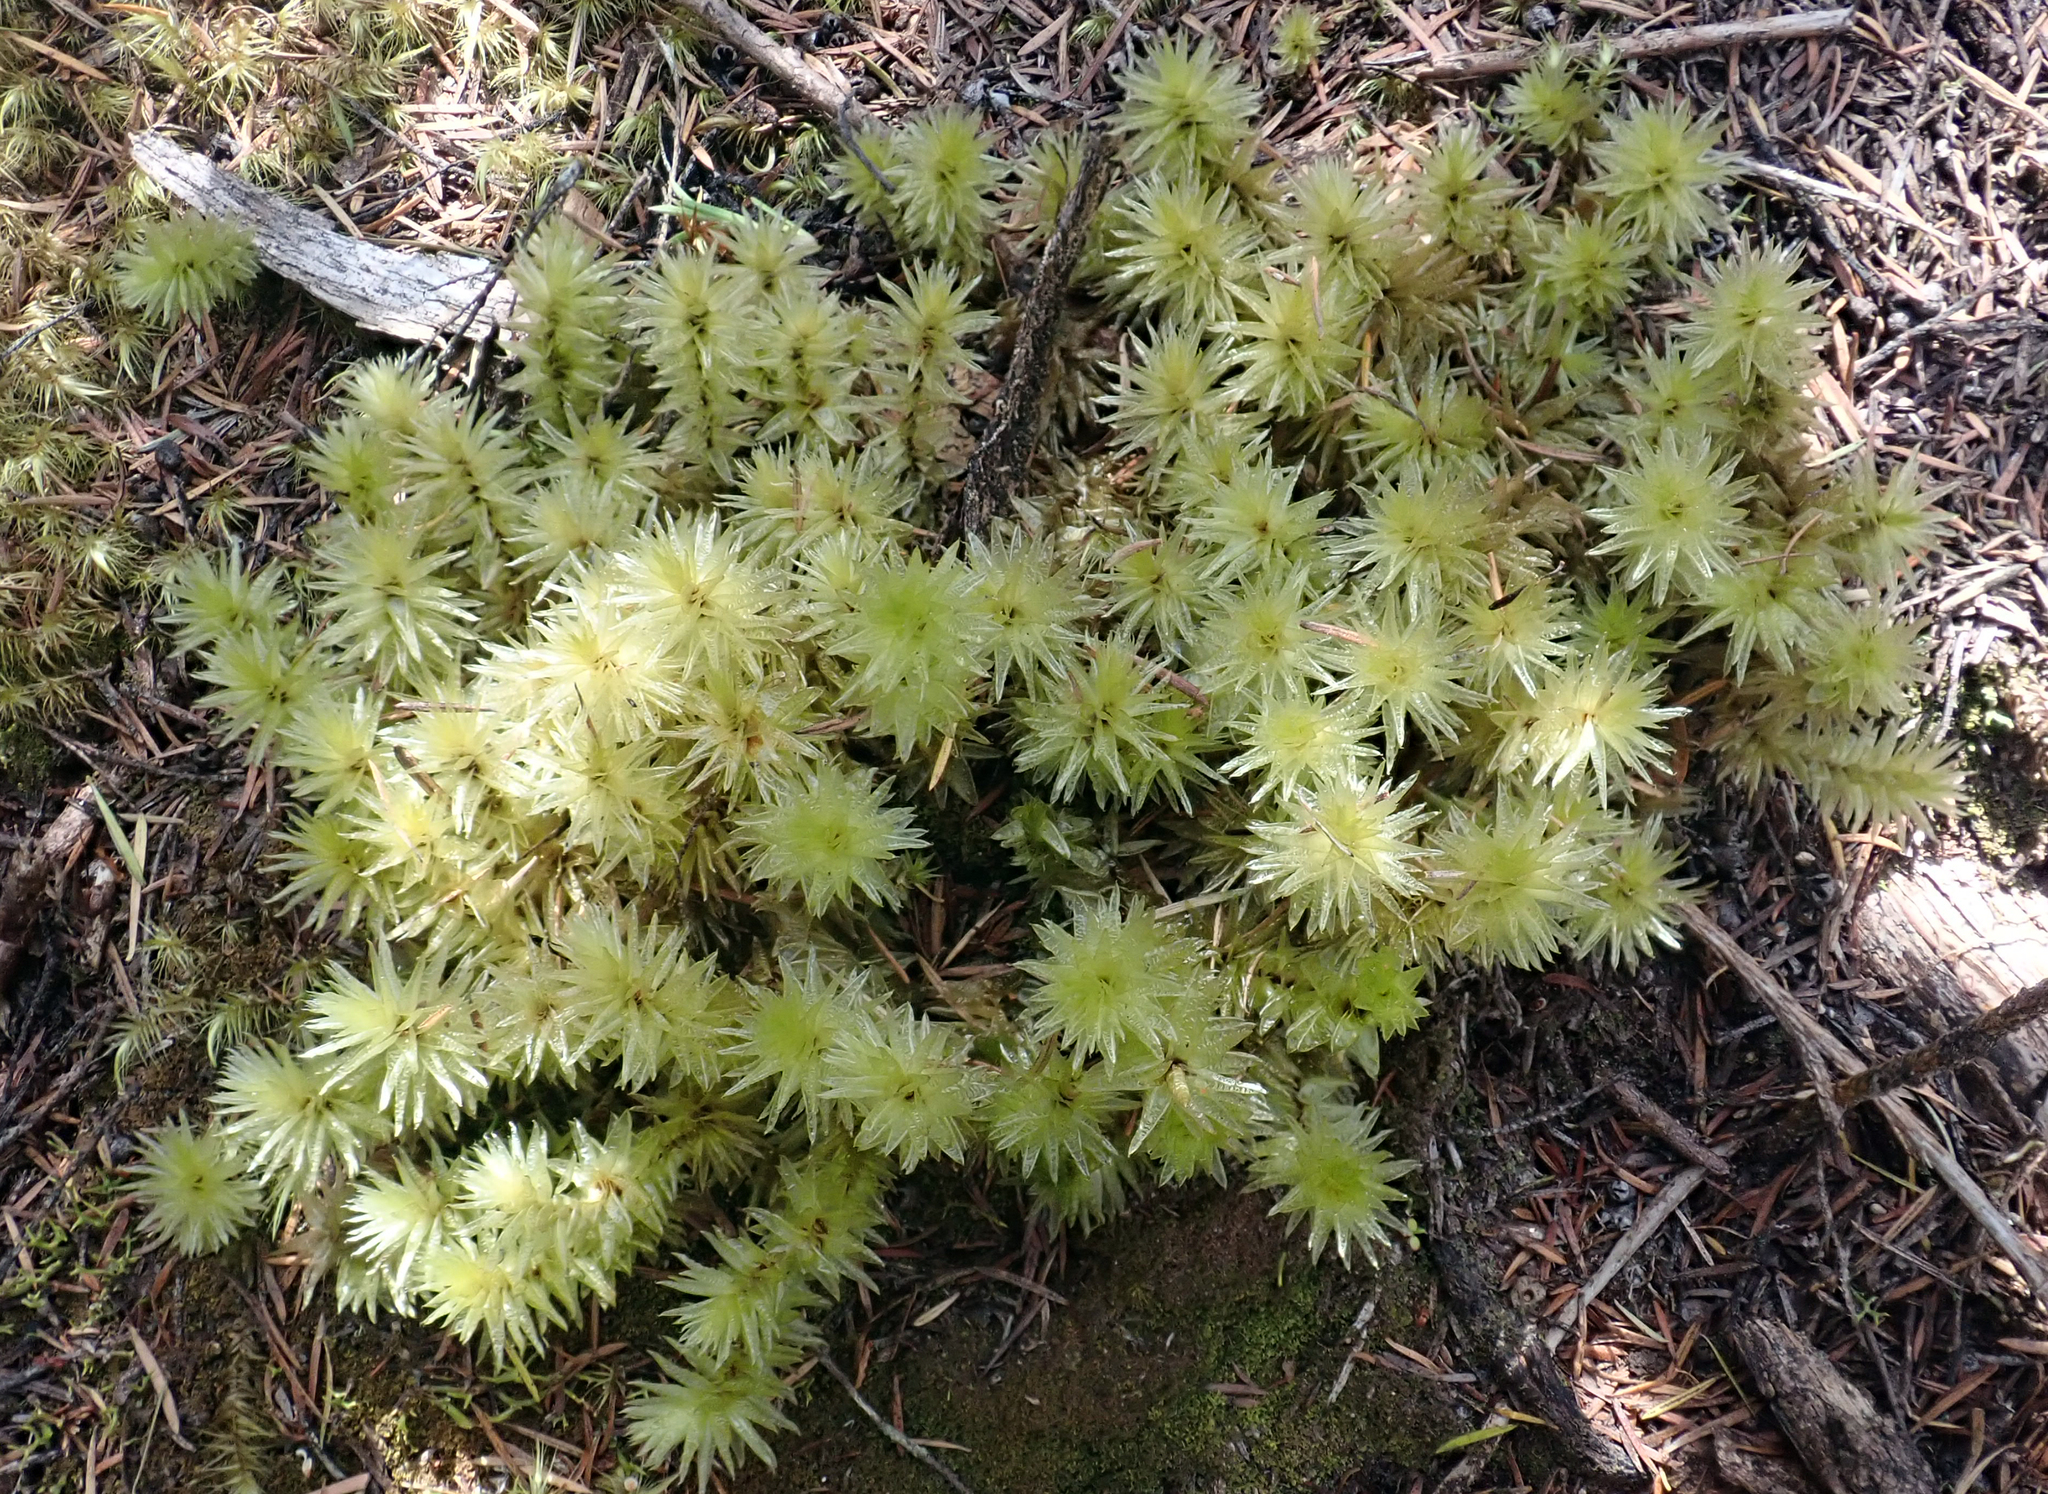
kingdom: Plantae
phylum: Bryophyta
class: Bryopsida
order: Bryales
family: Pulchrinodaceae
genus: Pulchrinodus
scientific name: Pulchrinodus inflatus
